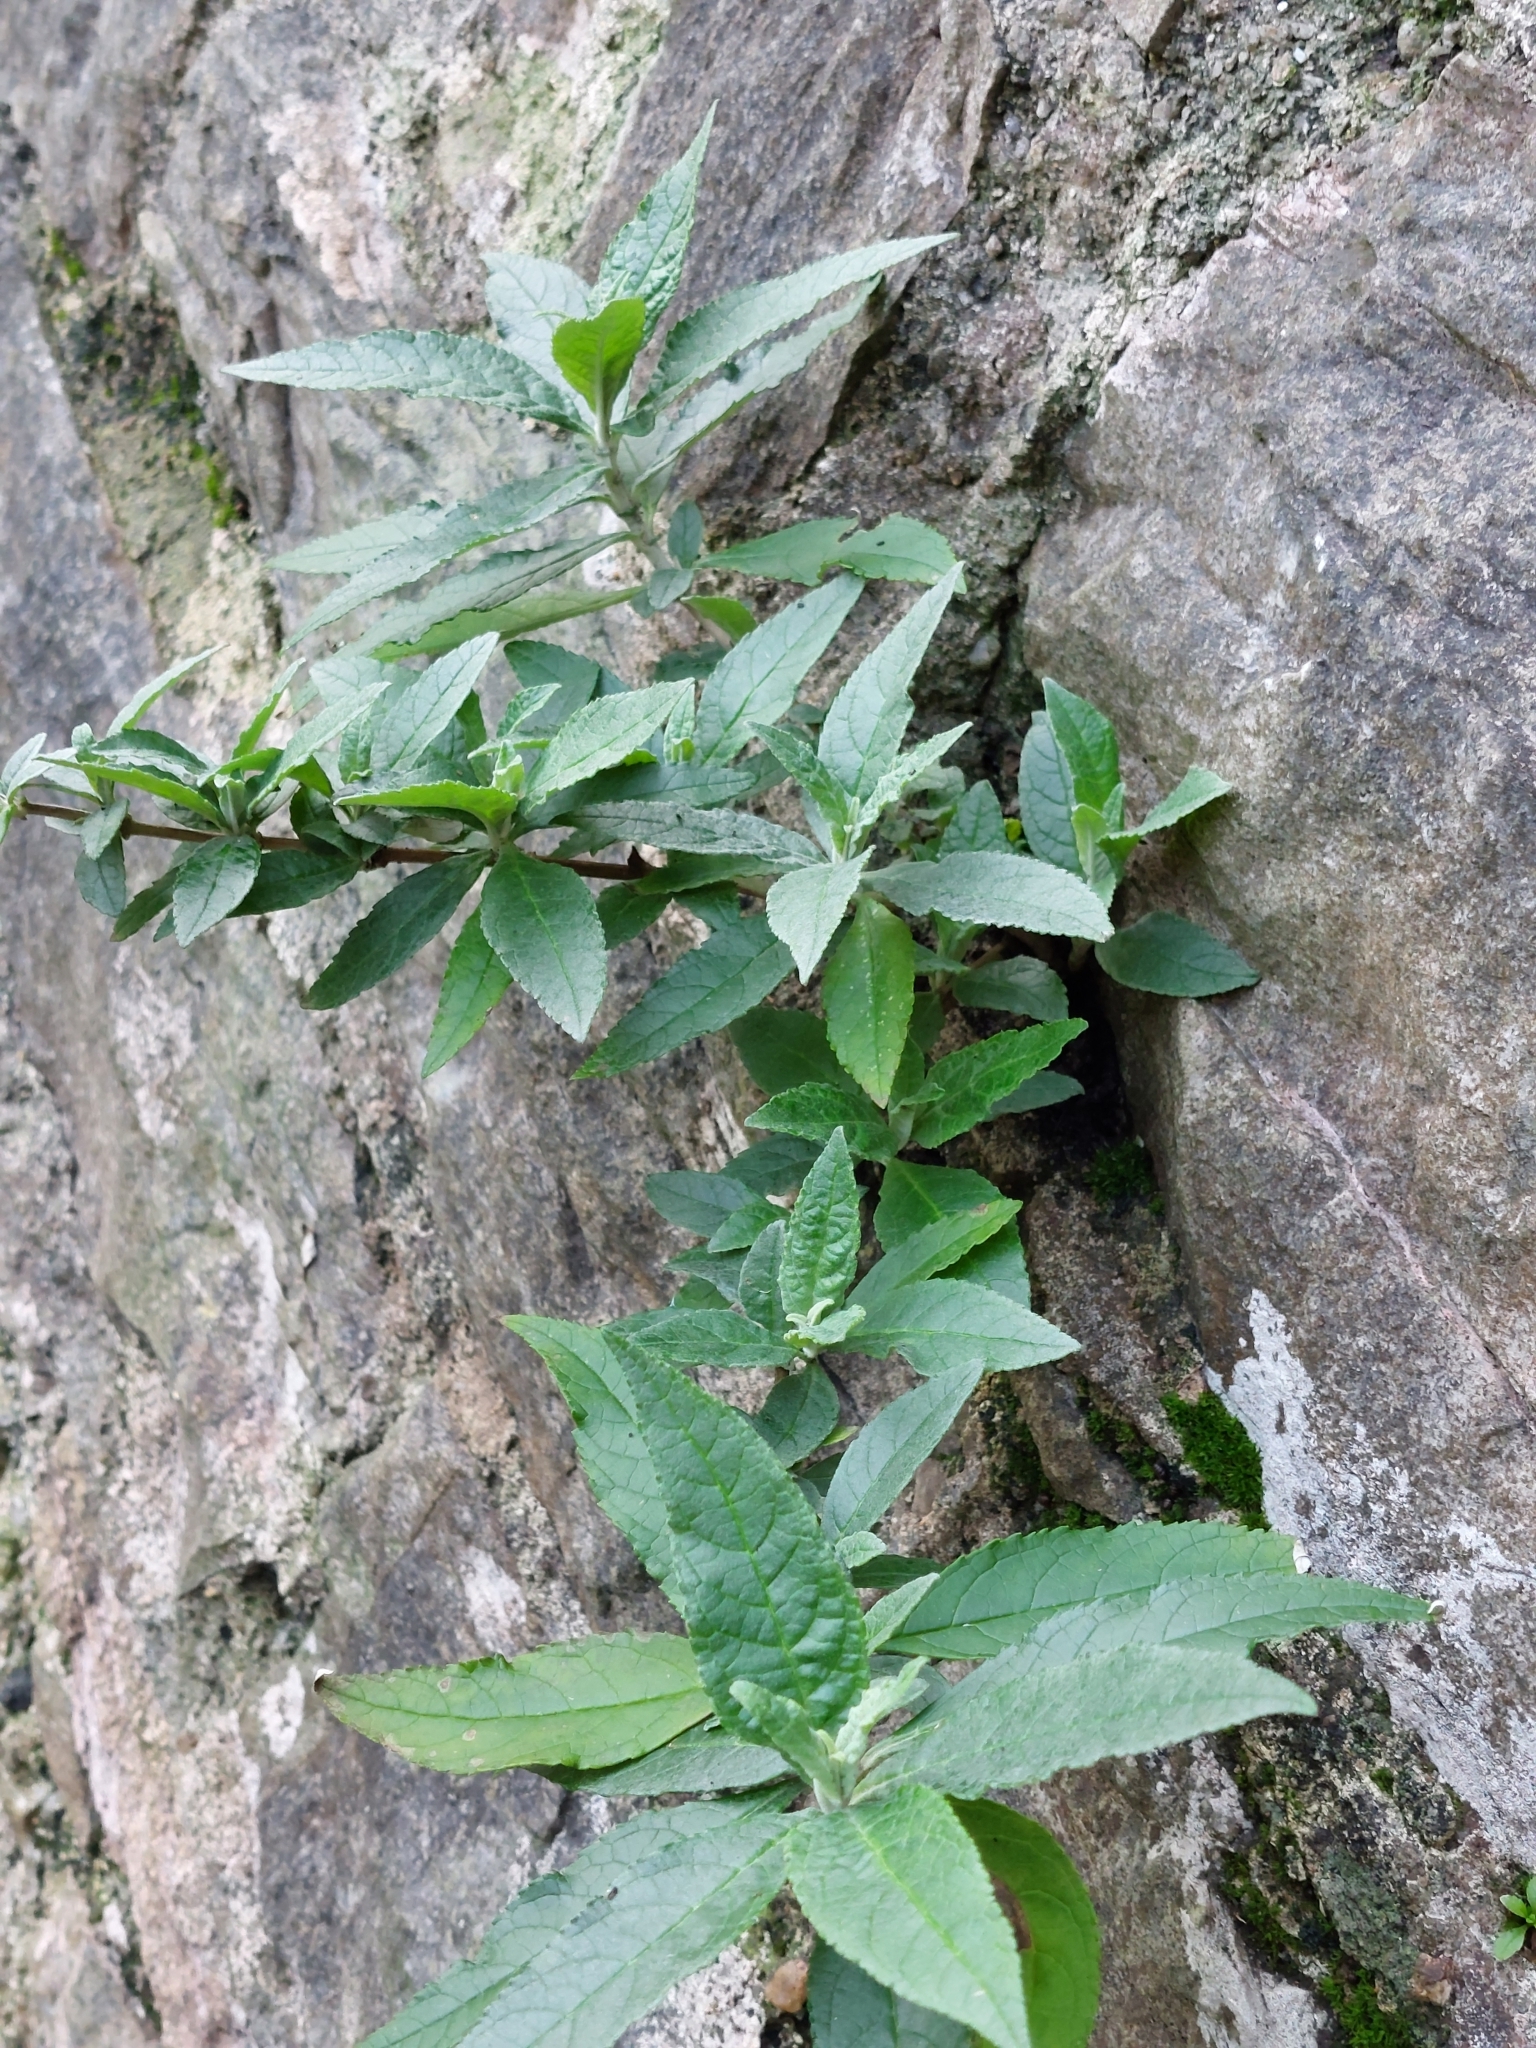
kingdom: Plantae
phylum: Tracheophyta
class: Magnoliopsida
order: Lamiales
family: Scrophulariaceae
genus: Buddleja
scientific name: Buddleja davidii
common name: Butterfly-bush
